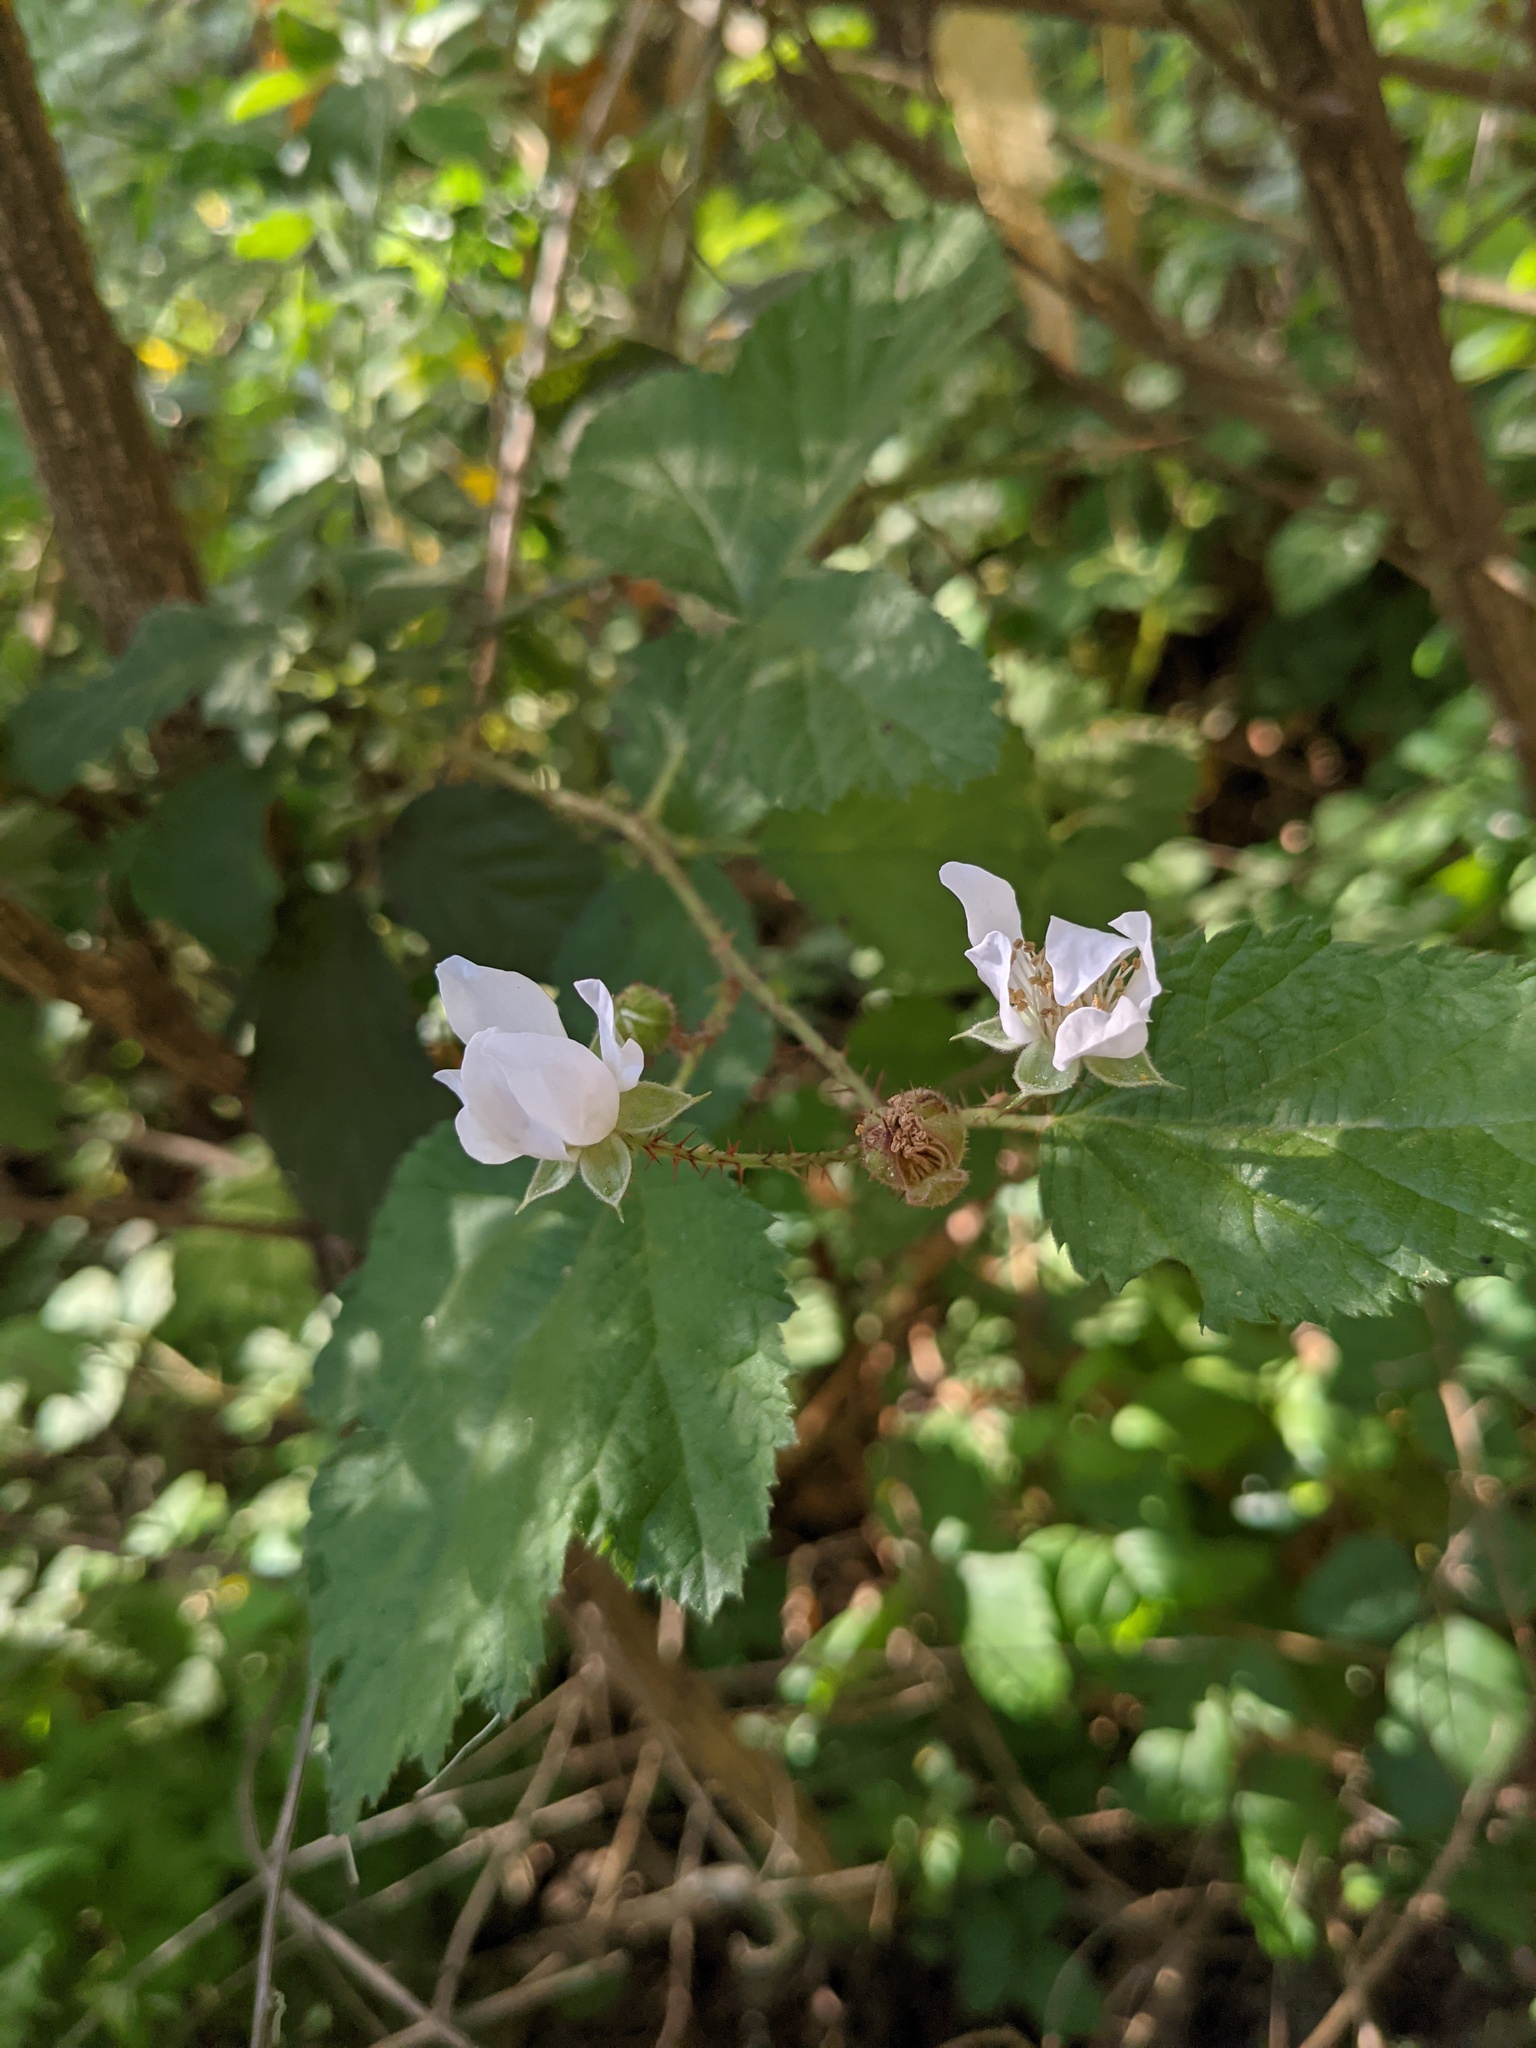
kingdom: Plantae
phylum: Tracheophyta
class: Magnoliopsida
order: Rosales
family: Rosaceae
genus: Rubus
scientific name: Rubus parviflorus
